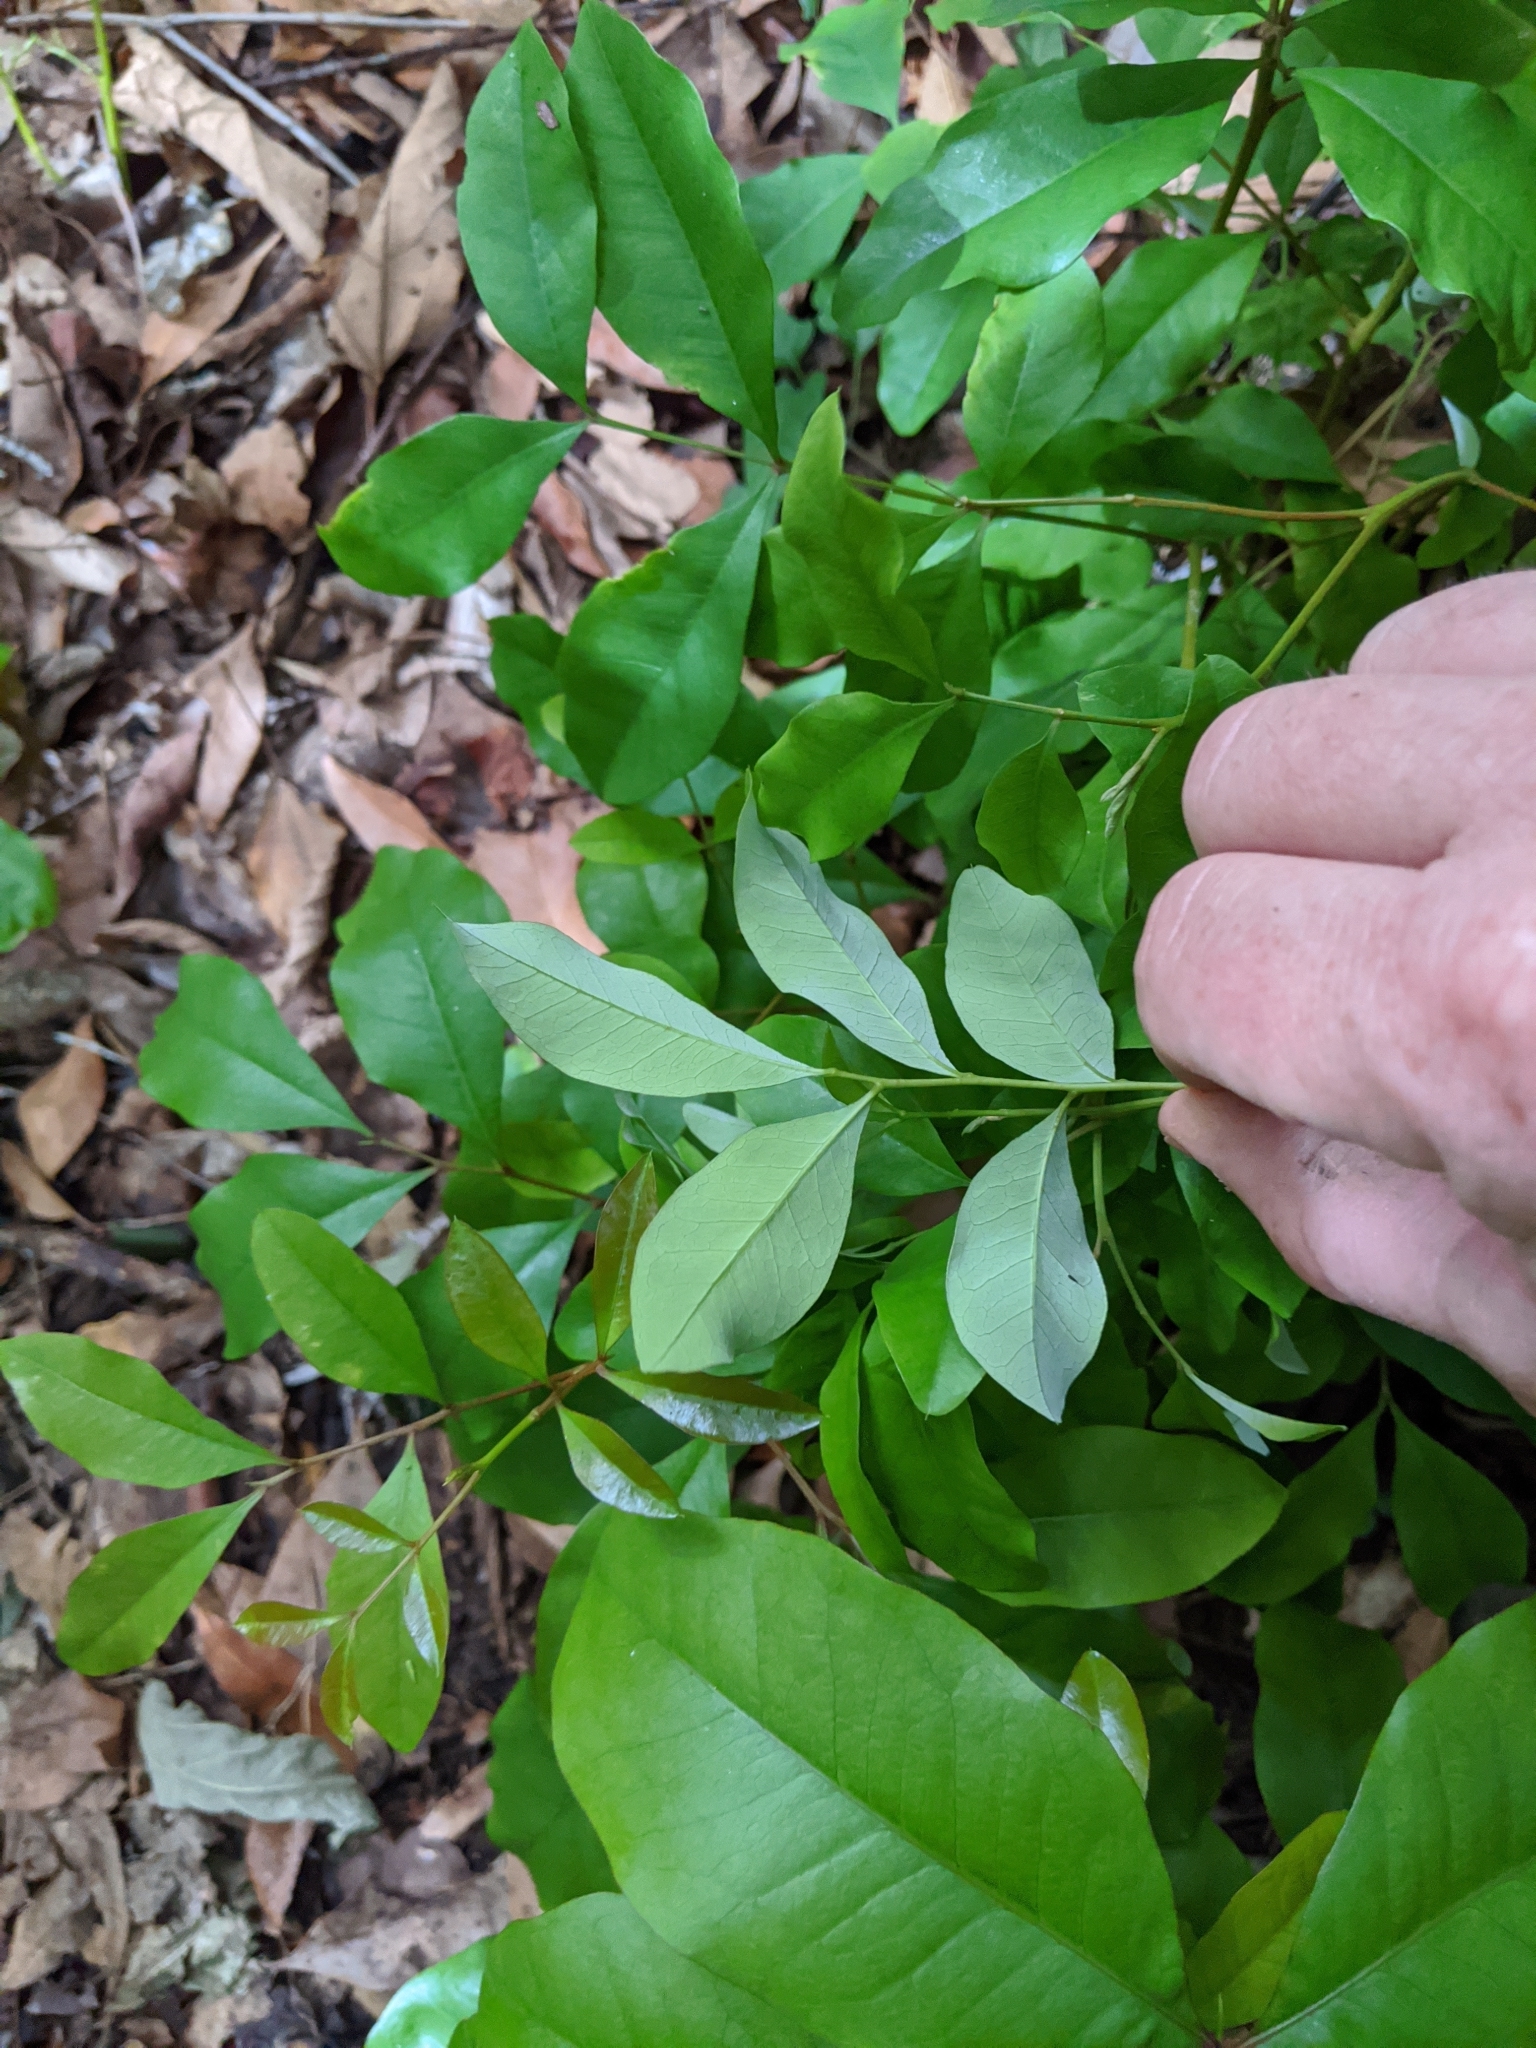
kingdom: Plantae
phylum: Tracheophyta
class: Magnoliopsida
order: Sapindales
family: Sapindaceae
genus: Guioa
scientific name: Guioa semiglauca
